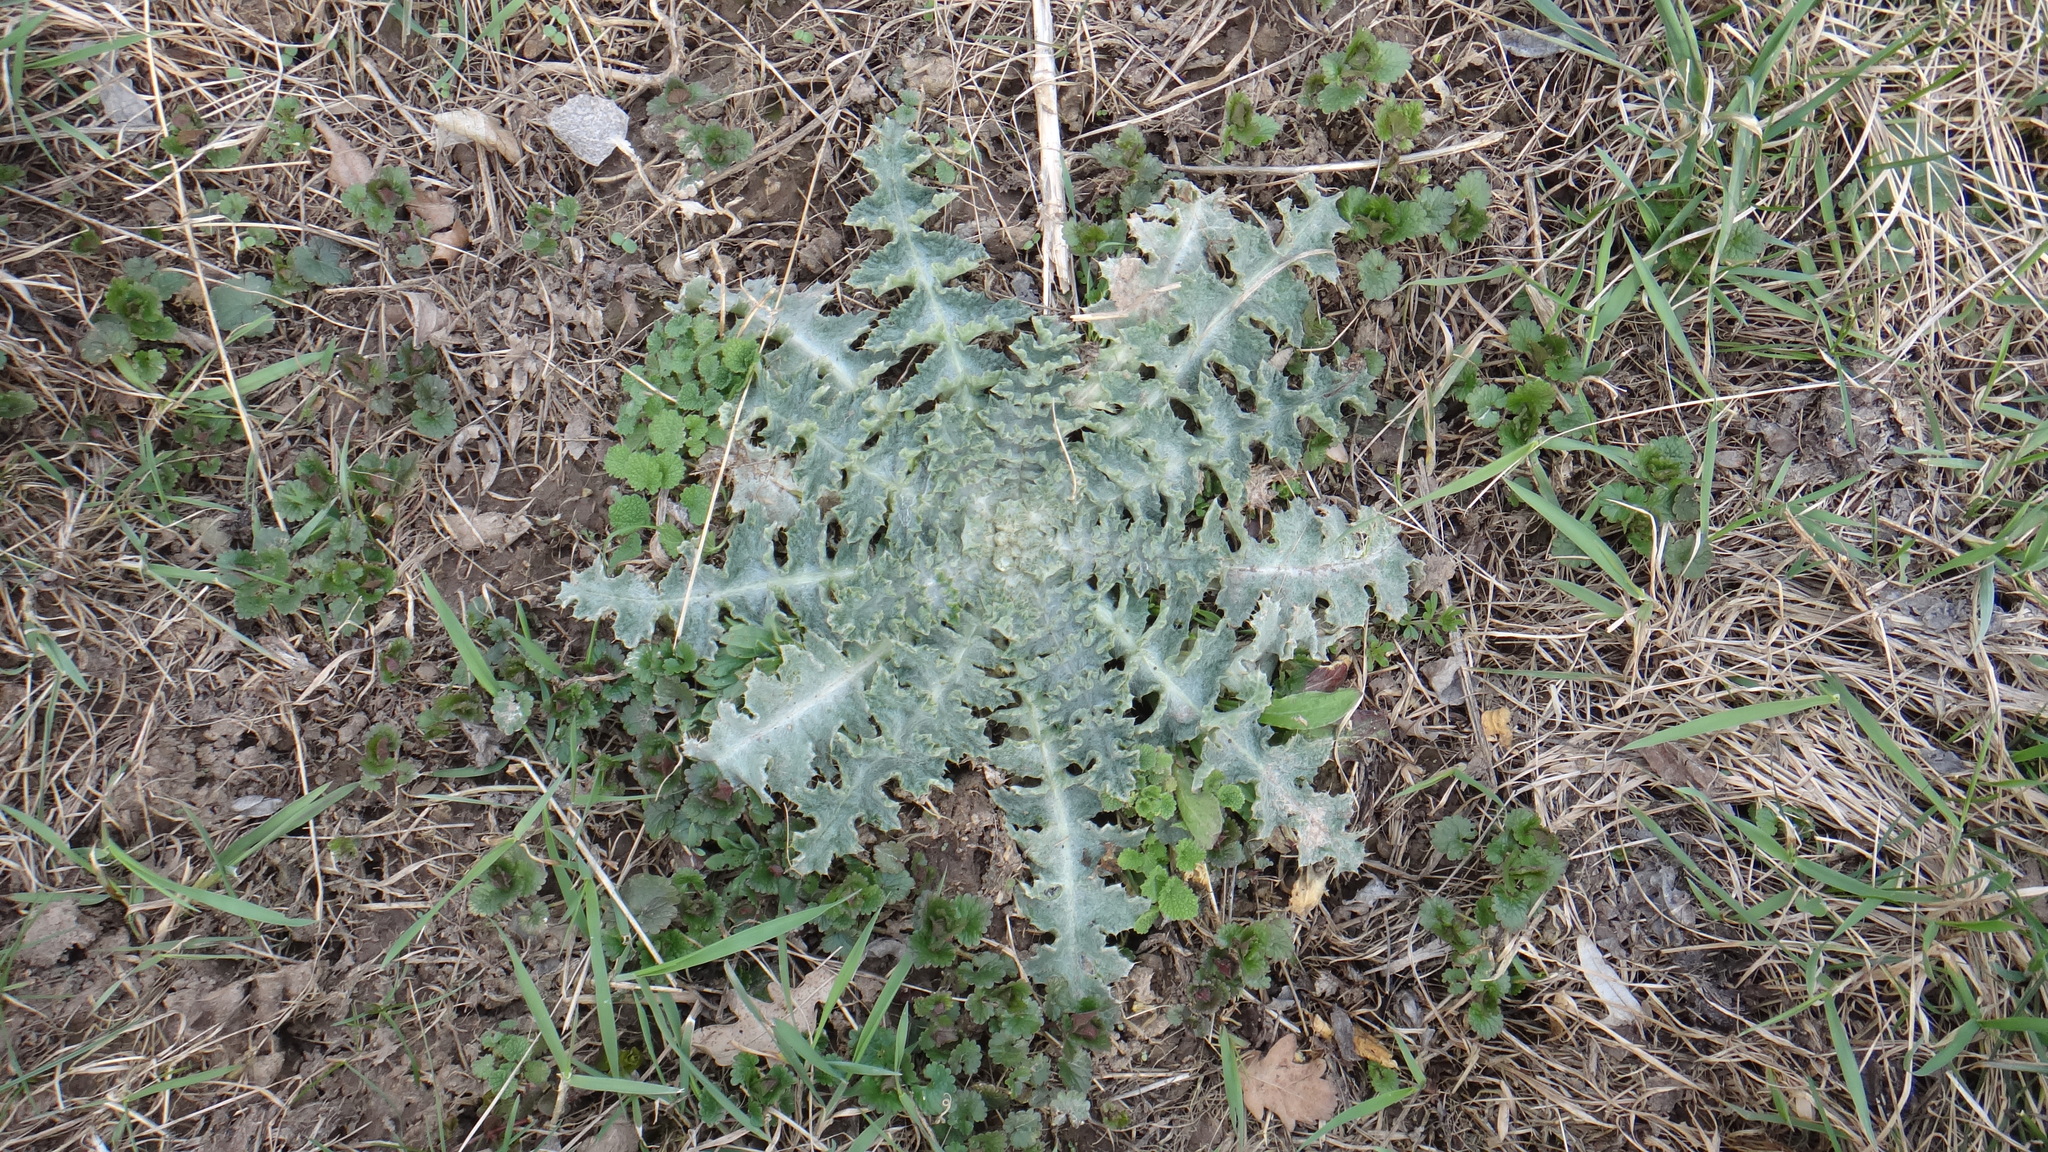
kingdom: Plantae
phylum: Tracheophyta
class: Magnoliopsida
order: Asterales
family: Asteraceae
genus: Onopordum
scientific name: Onopordum acanthium
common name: Scotch thistle
